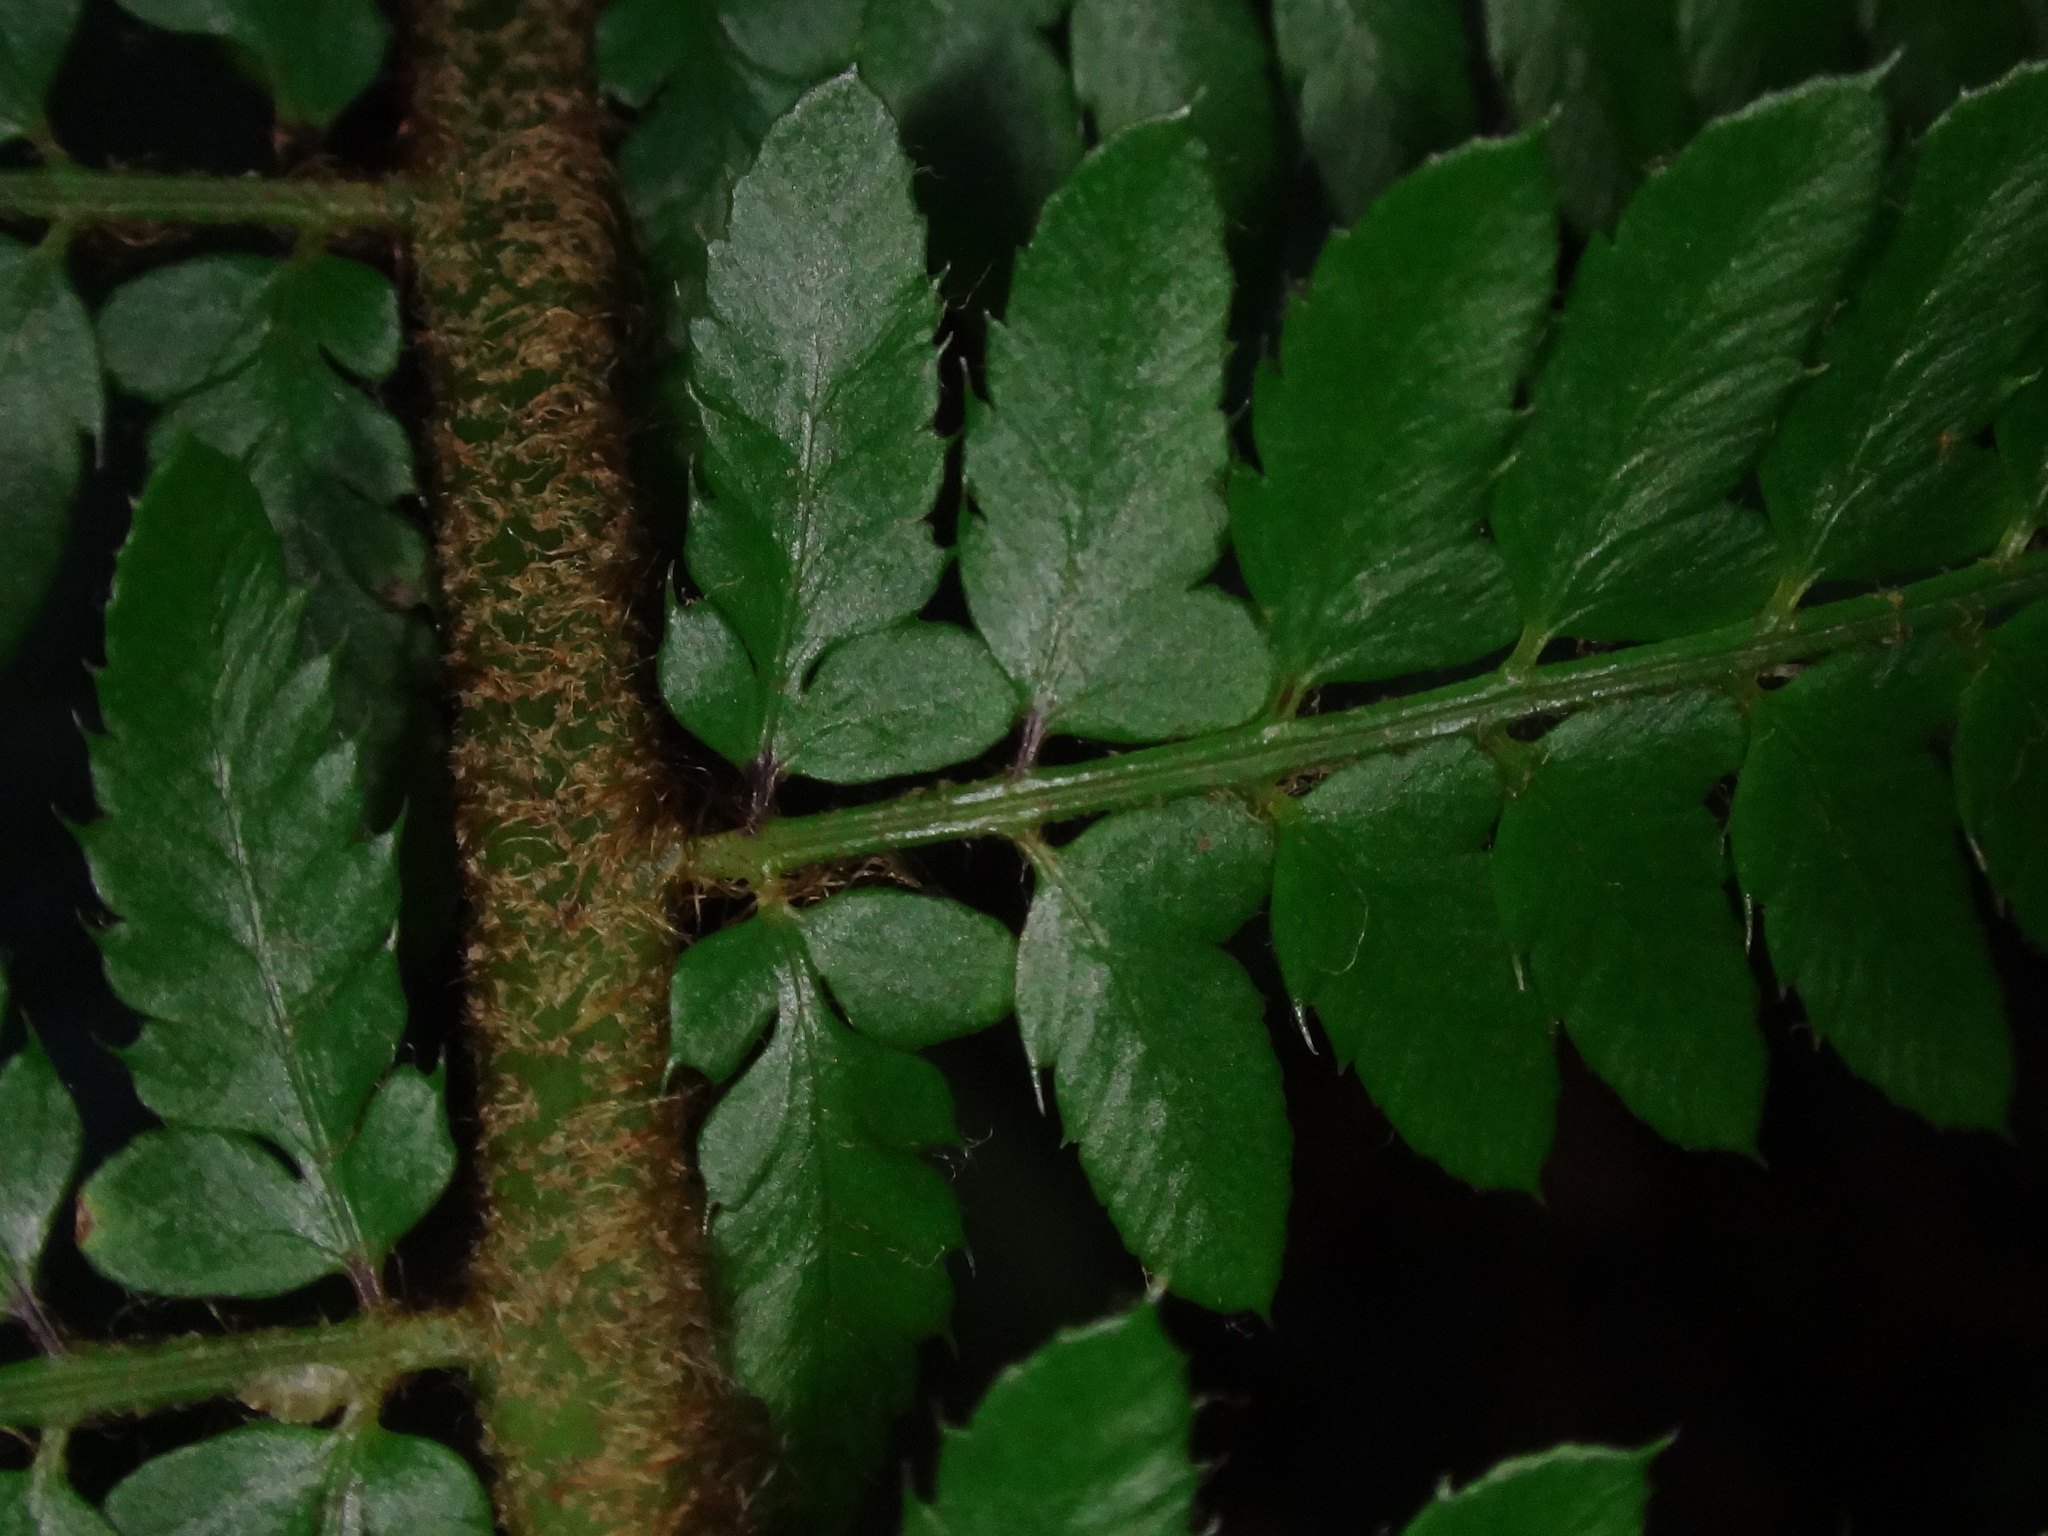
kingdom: Plantae
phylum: Tracheophyta
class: Polypodiopsida
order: Polypodiales
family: Dryopteridaceae
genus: Polystichum
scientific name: Polystichum setiferum
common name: Soft shield-fern
